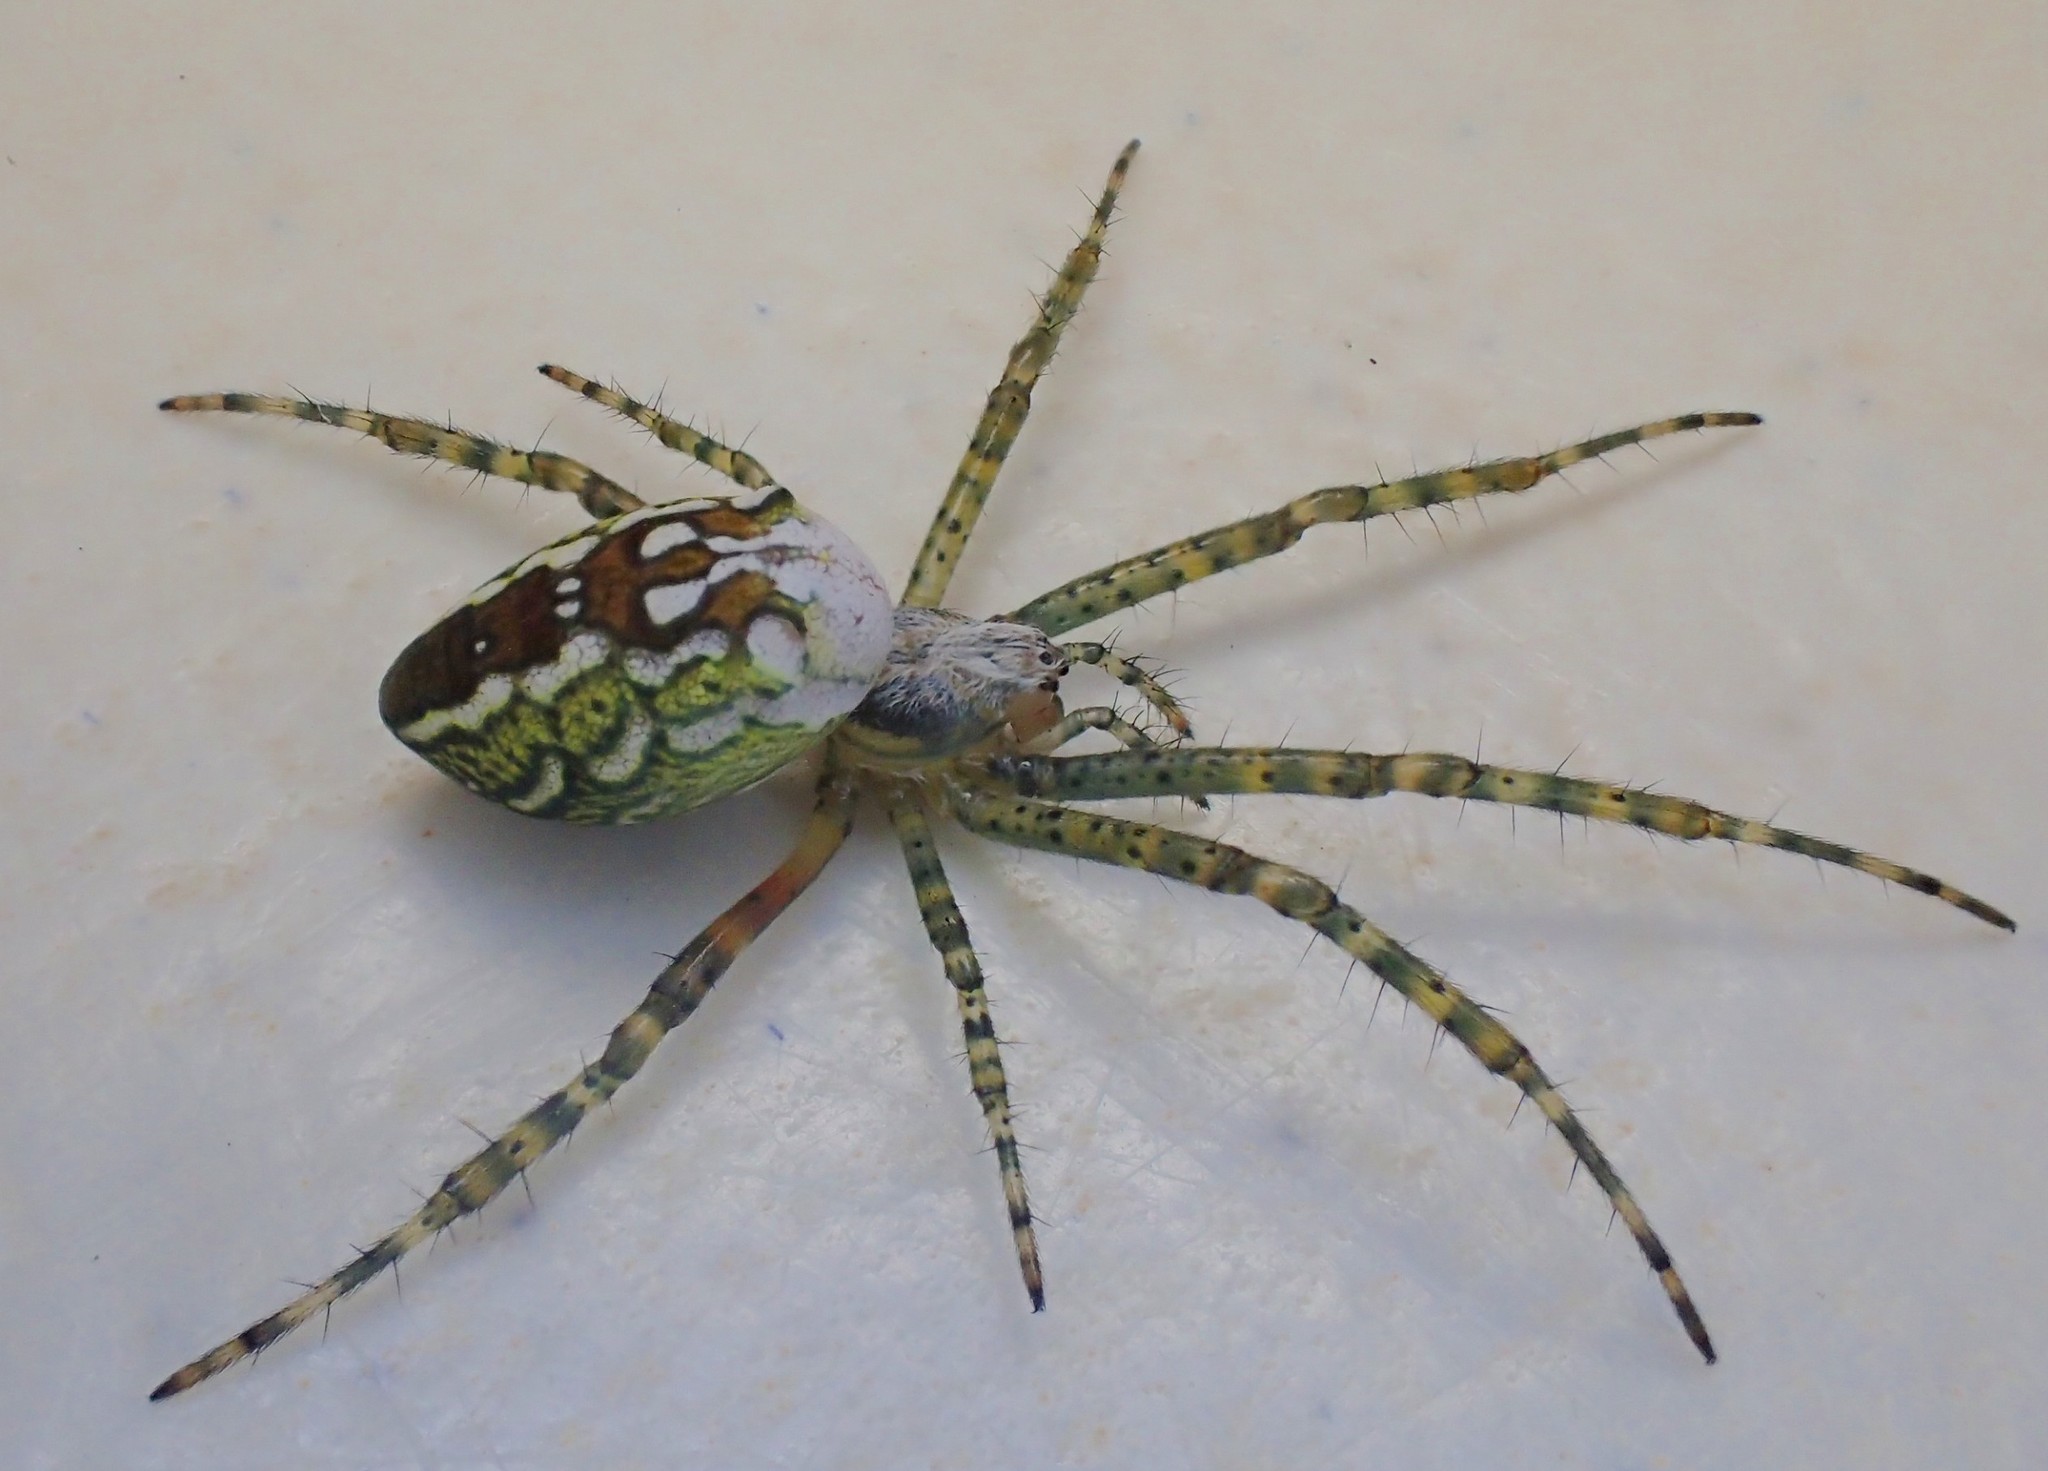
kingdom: Chromista
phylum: Ochrophyta
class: Dictyochophyceae
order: Pedinellales
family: Cyrtophoraceae
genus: Cyrtophora
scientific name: Cyrtophora moluccensis
